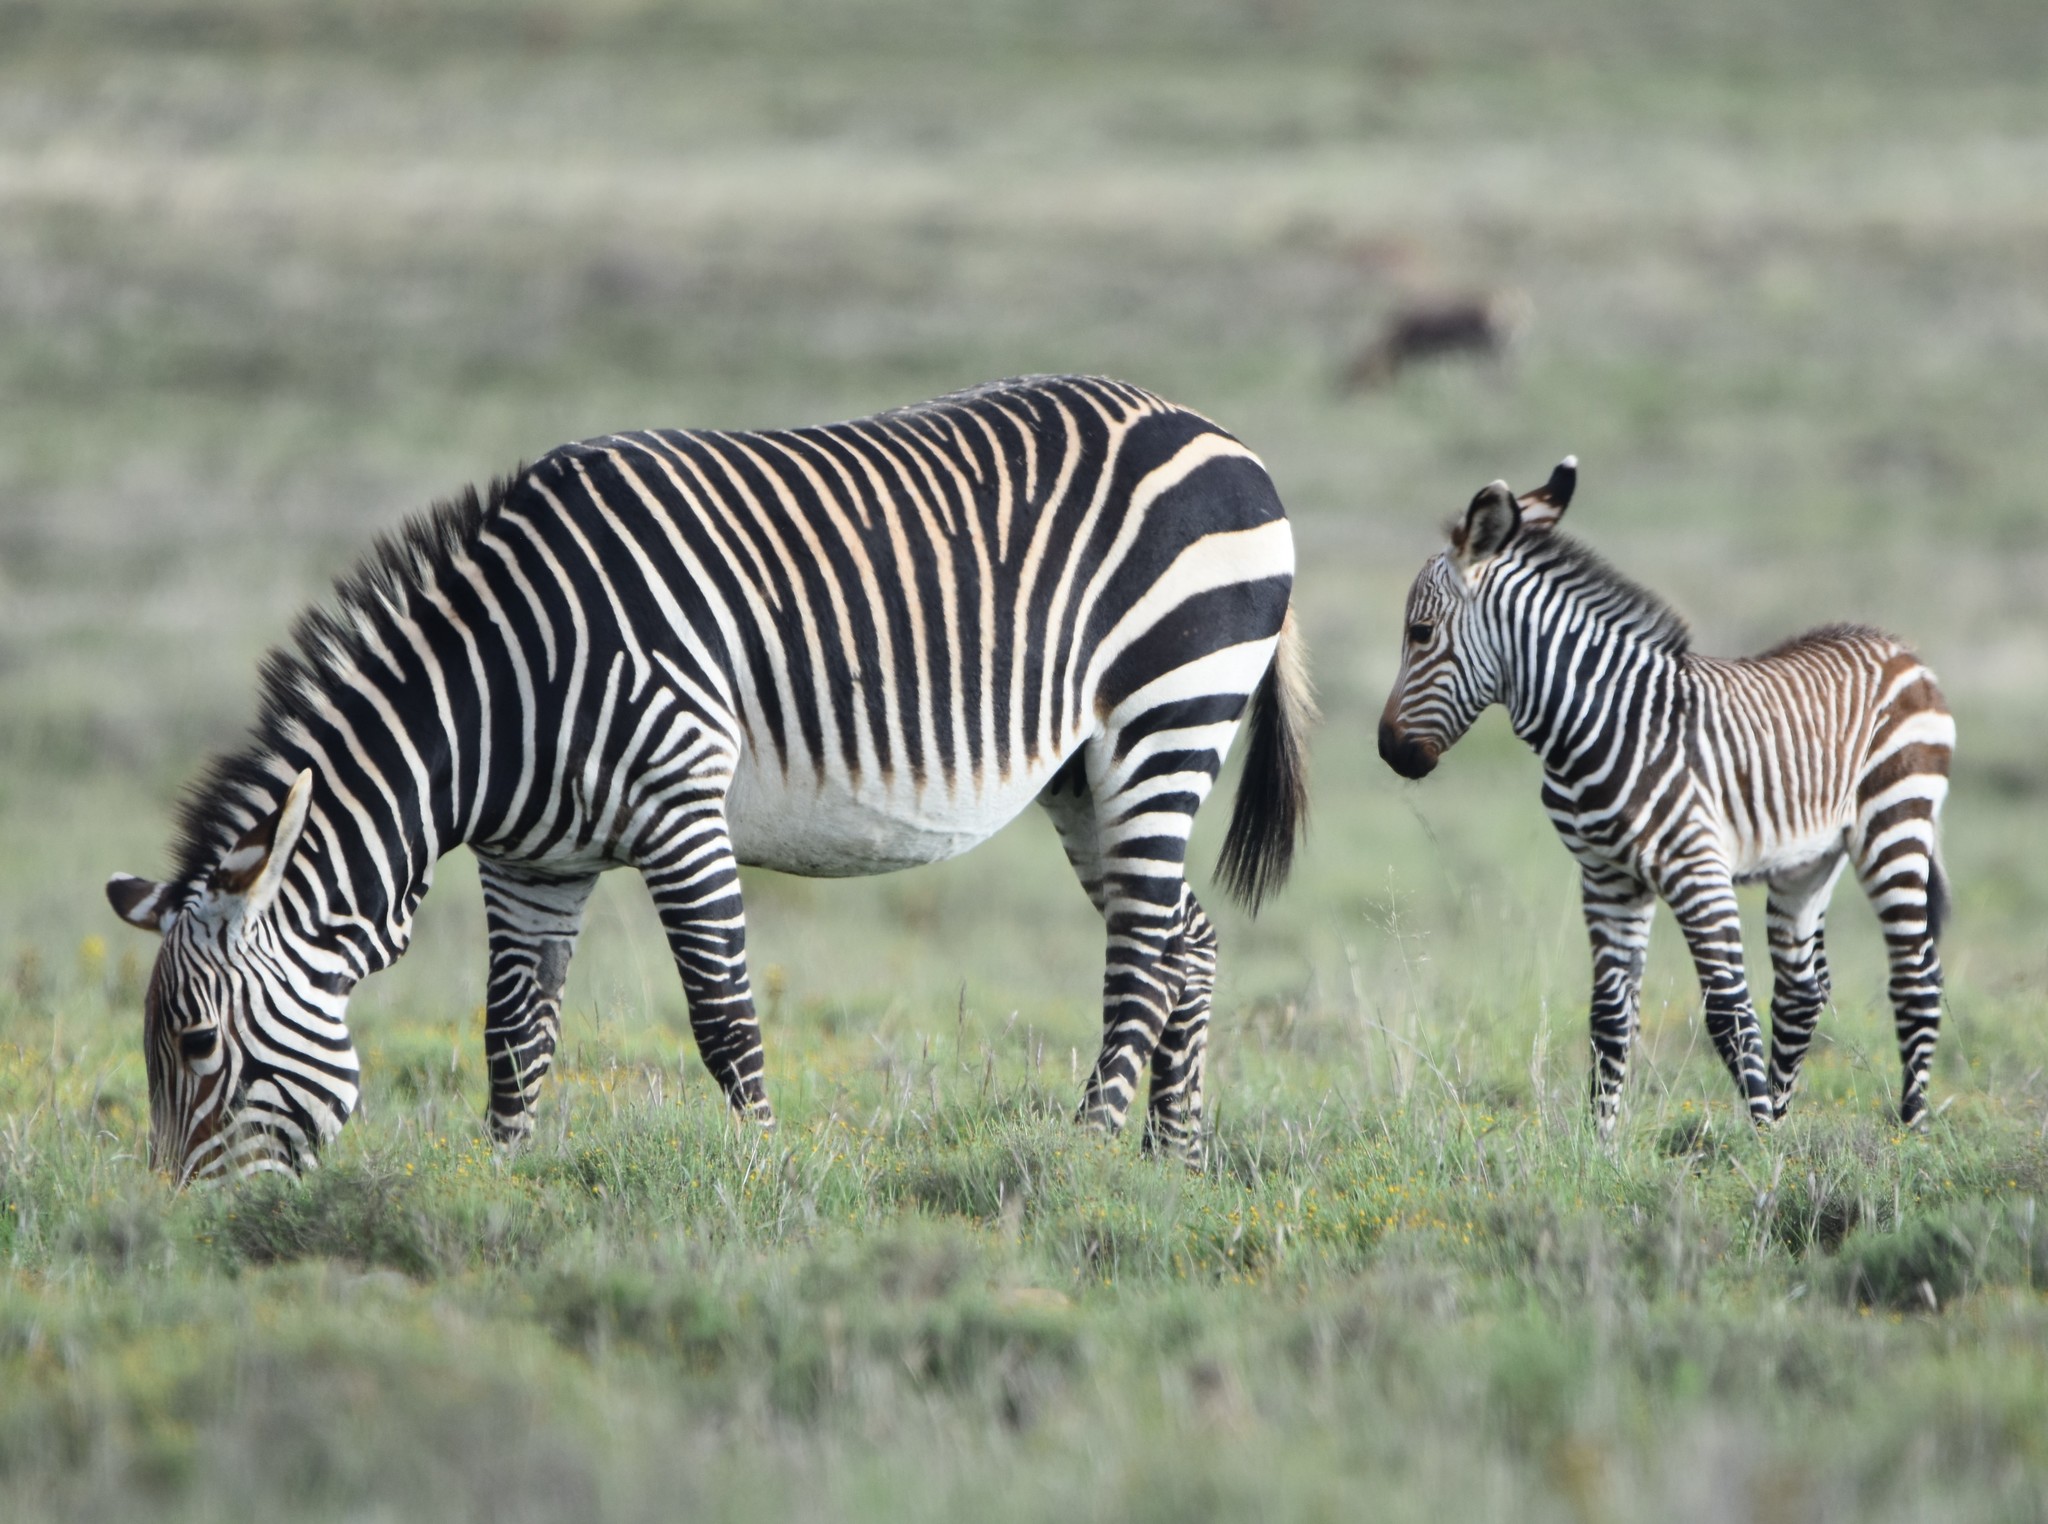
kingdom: Animalia
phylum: Chordata
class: Mammalia
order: Perissodactyla
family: Equidae
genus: Equus
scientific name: Equus zebra
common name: Mountain zebra
